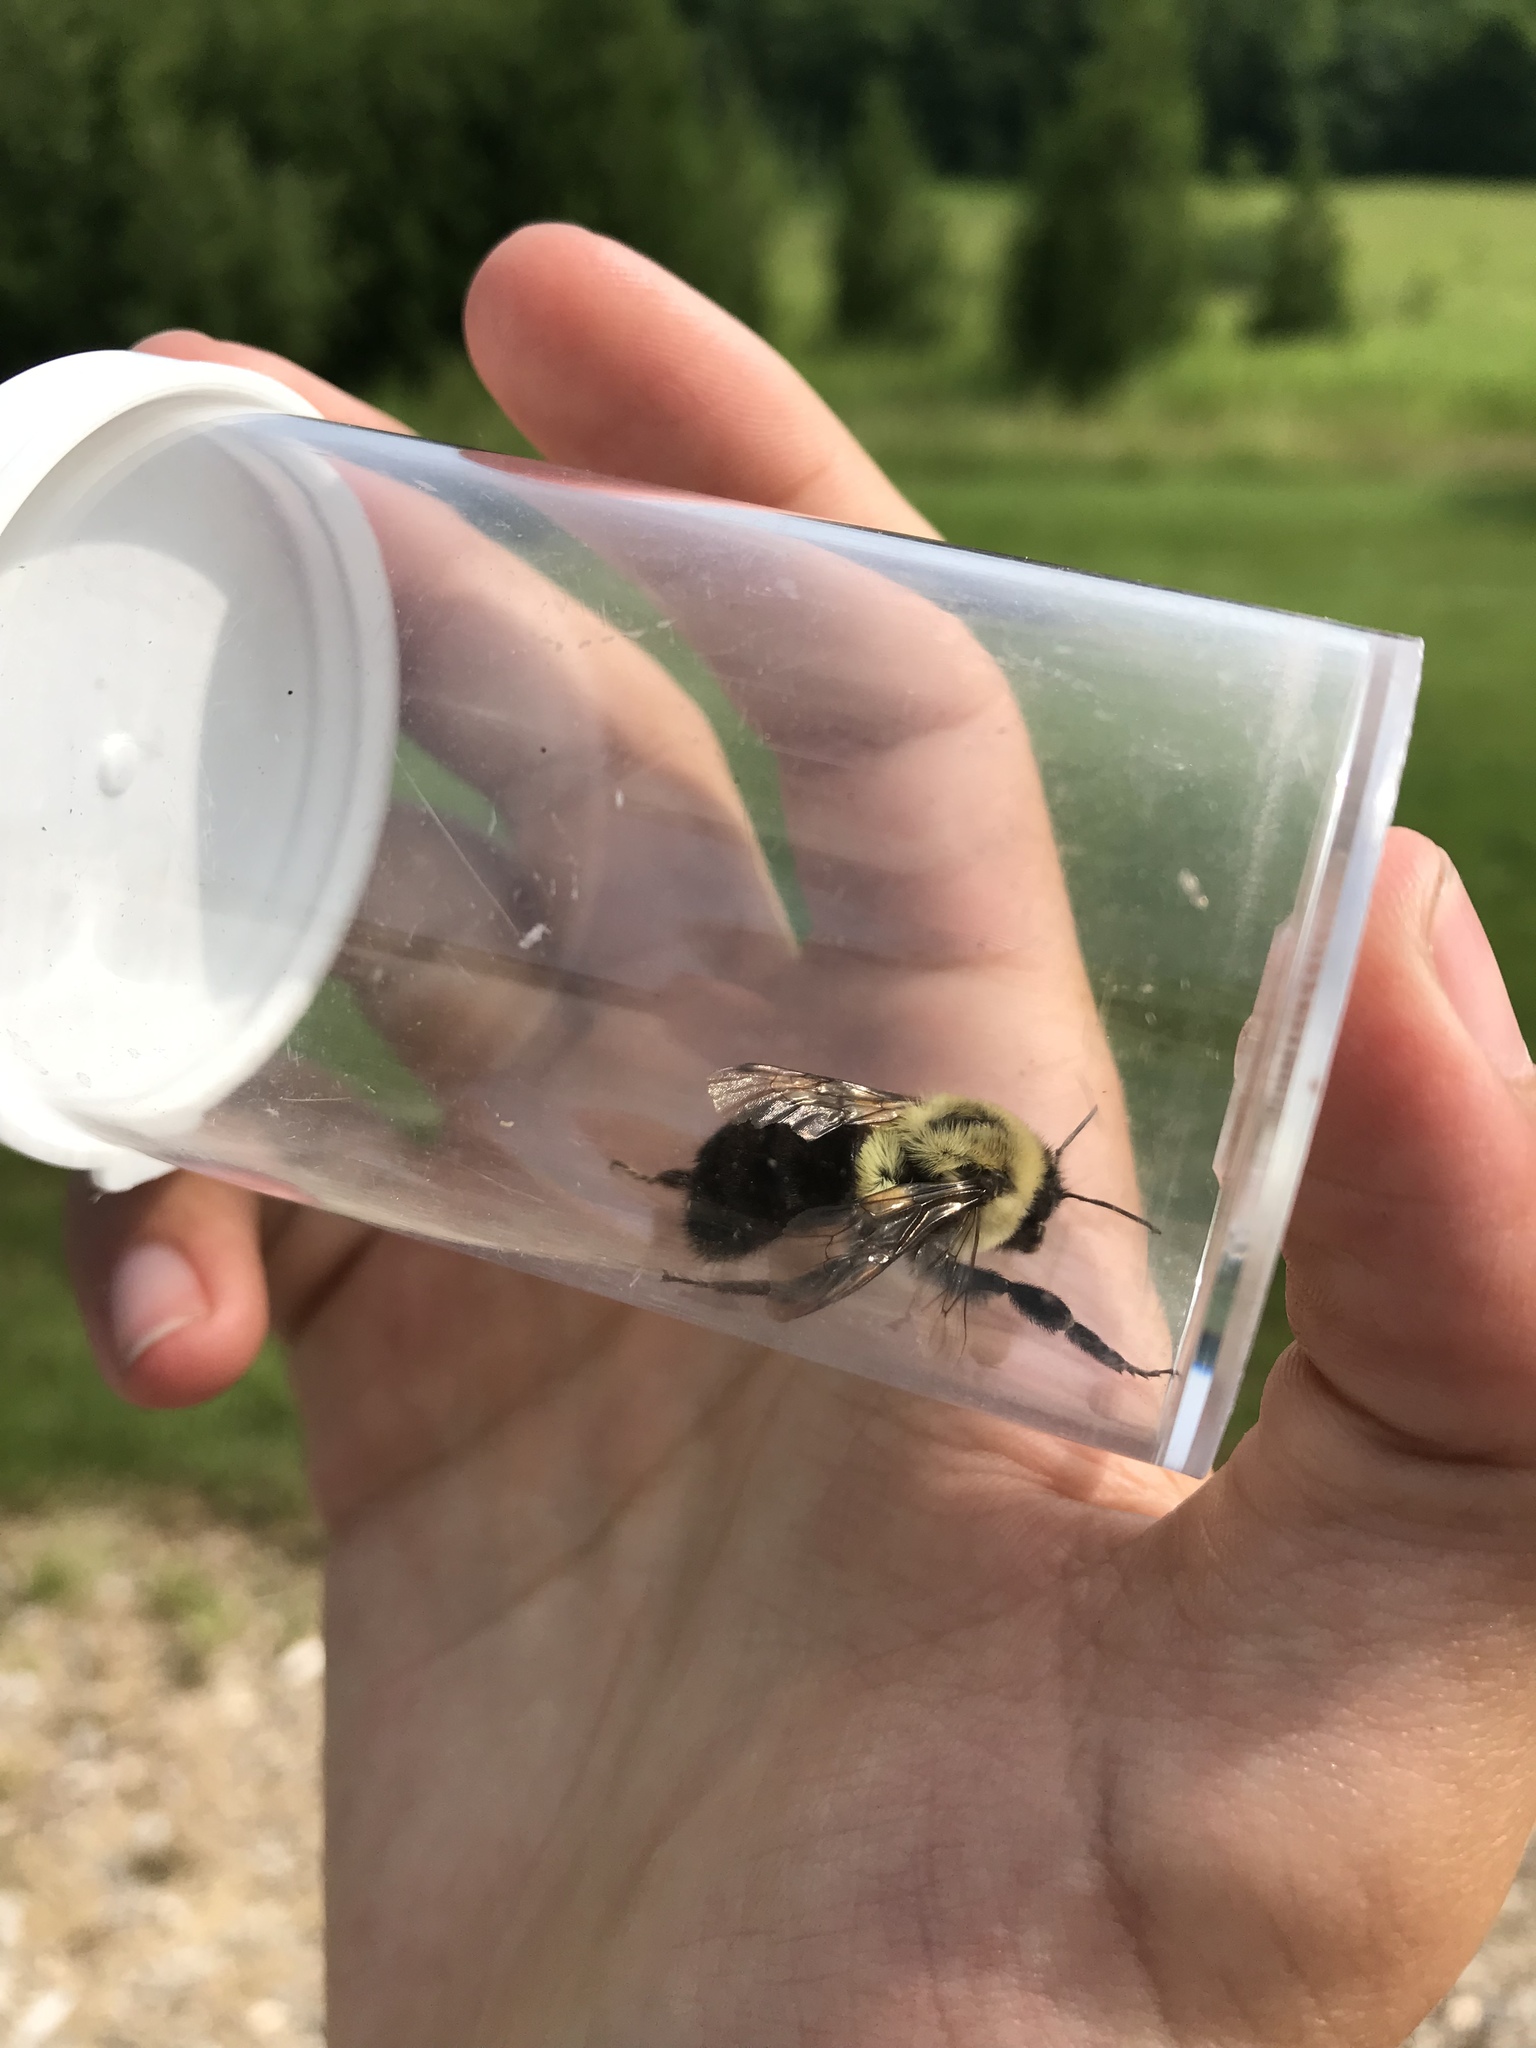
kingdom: Animalia
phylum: Arthropoda
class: Insecta
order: Hymenoptera
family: Apidae
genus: Bombus
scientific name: Bombus impatiens
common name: Common eastern bumble bee
